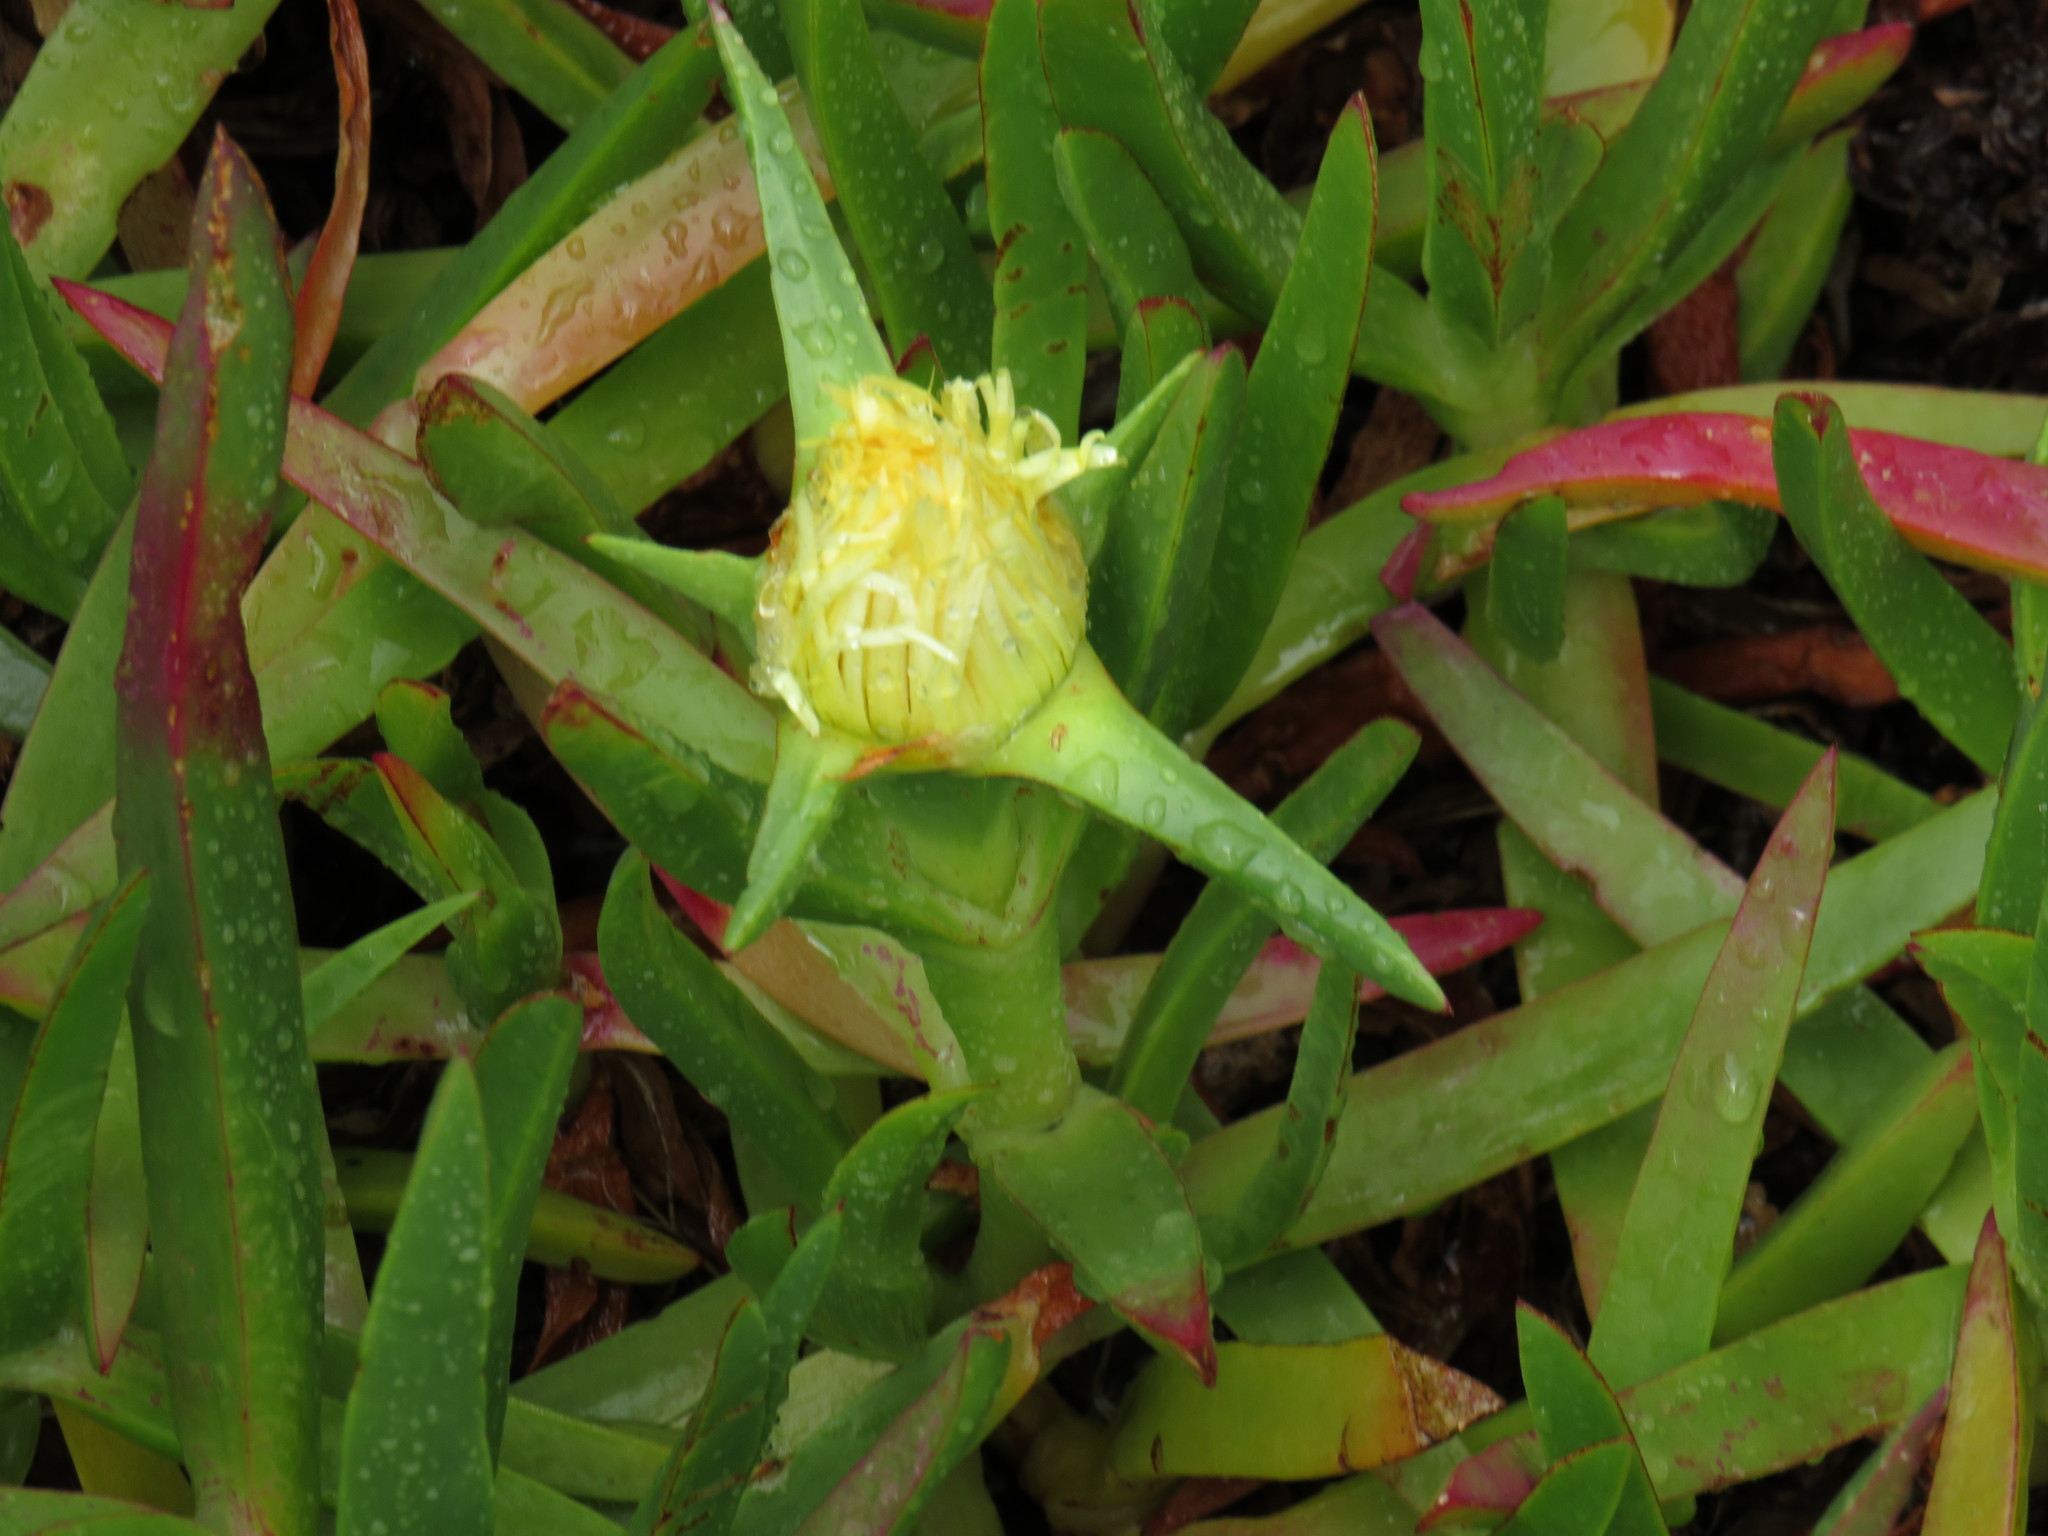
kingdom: Plantae
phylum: Tracheophyta
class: Magnoliopsida
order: Caryophyllales
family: Aizoaceae
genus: Carpobrotus
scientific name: Carpobrotus edulis
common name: Hottentot-fig
